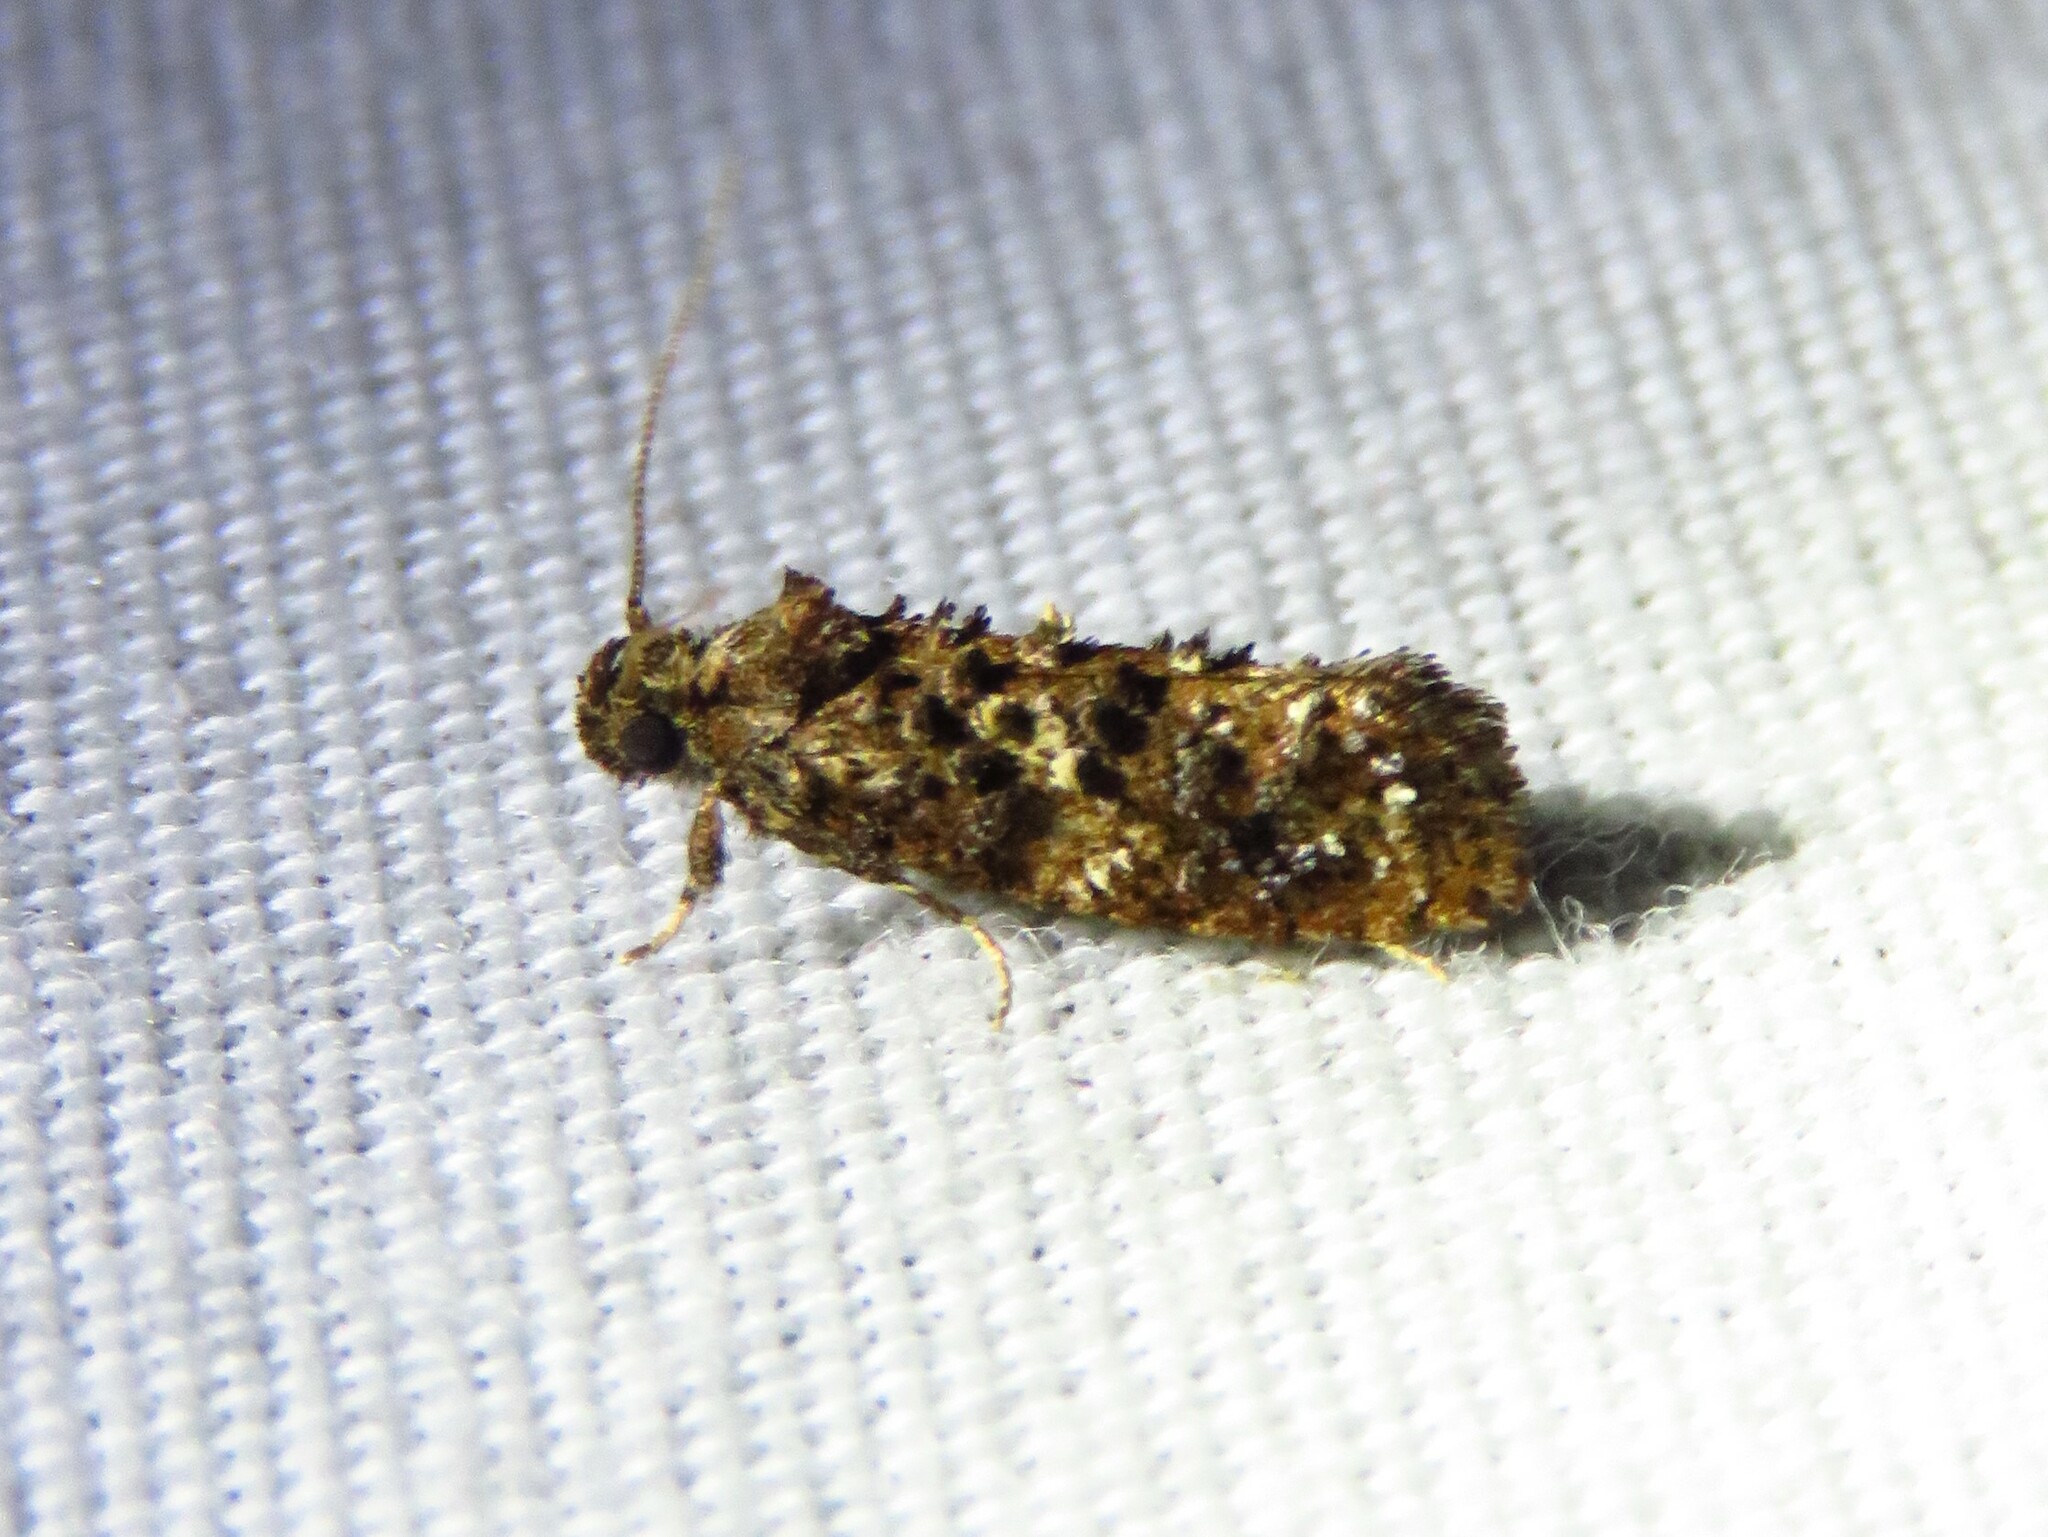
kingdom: Animalia
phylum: Arthropoda
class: Insecta
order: Lepidoptera
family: Tineidae
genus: Acrolophus
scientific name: Acrolophus cressoni
